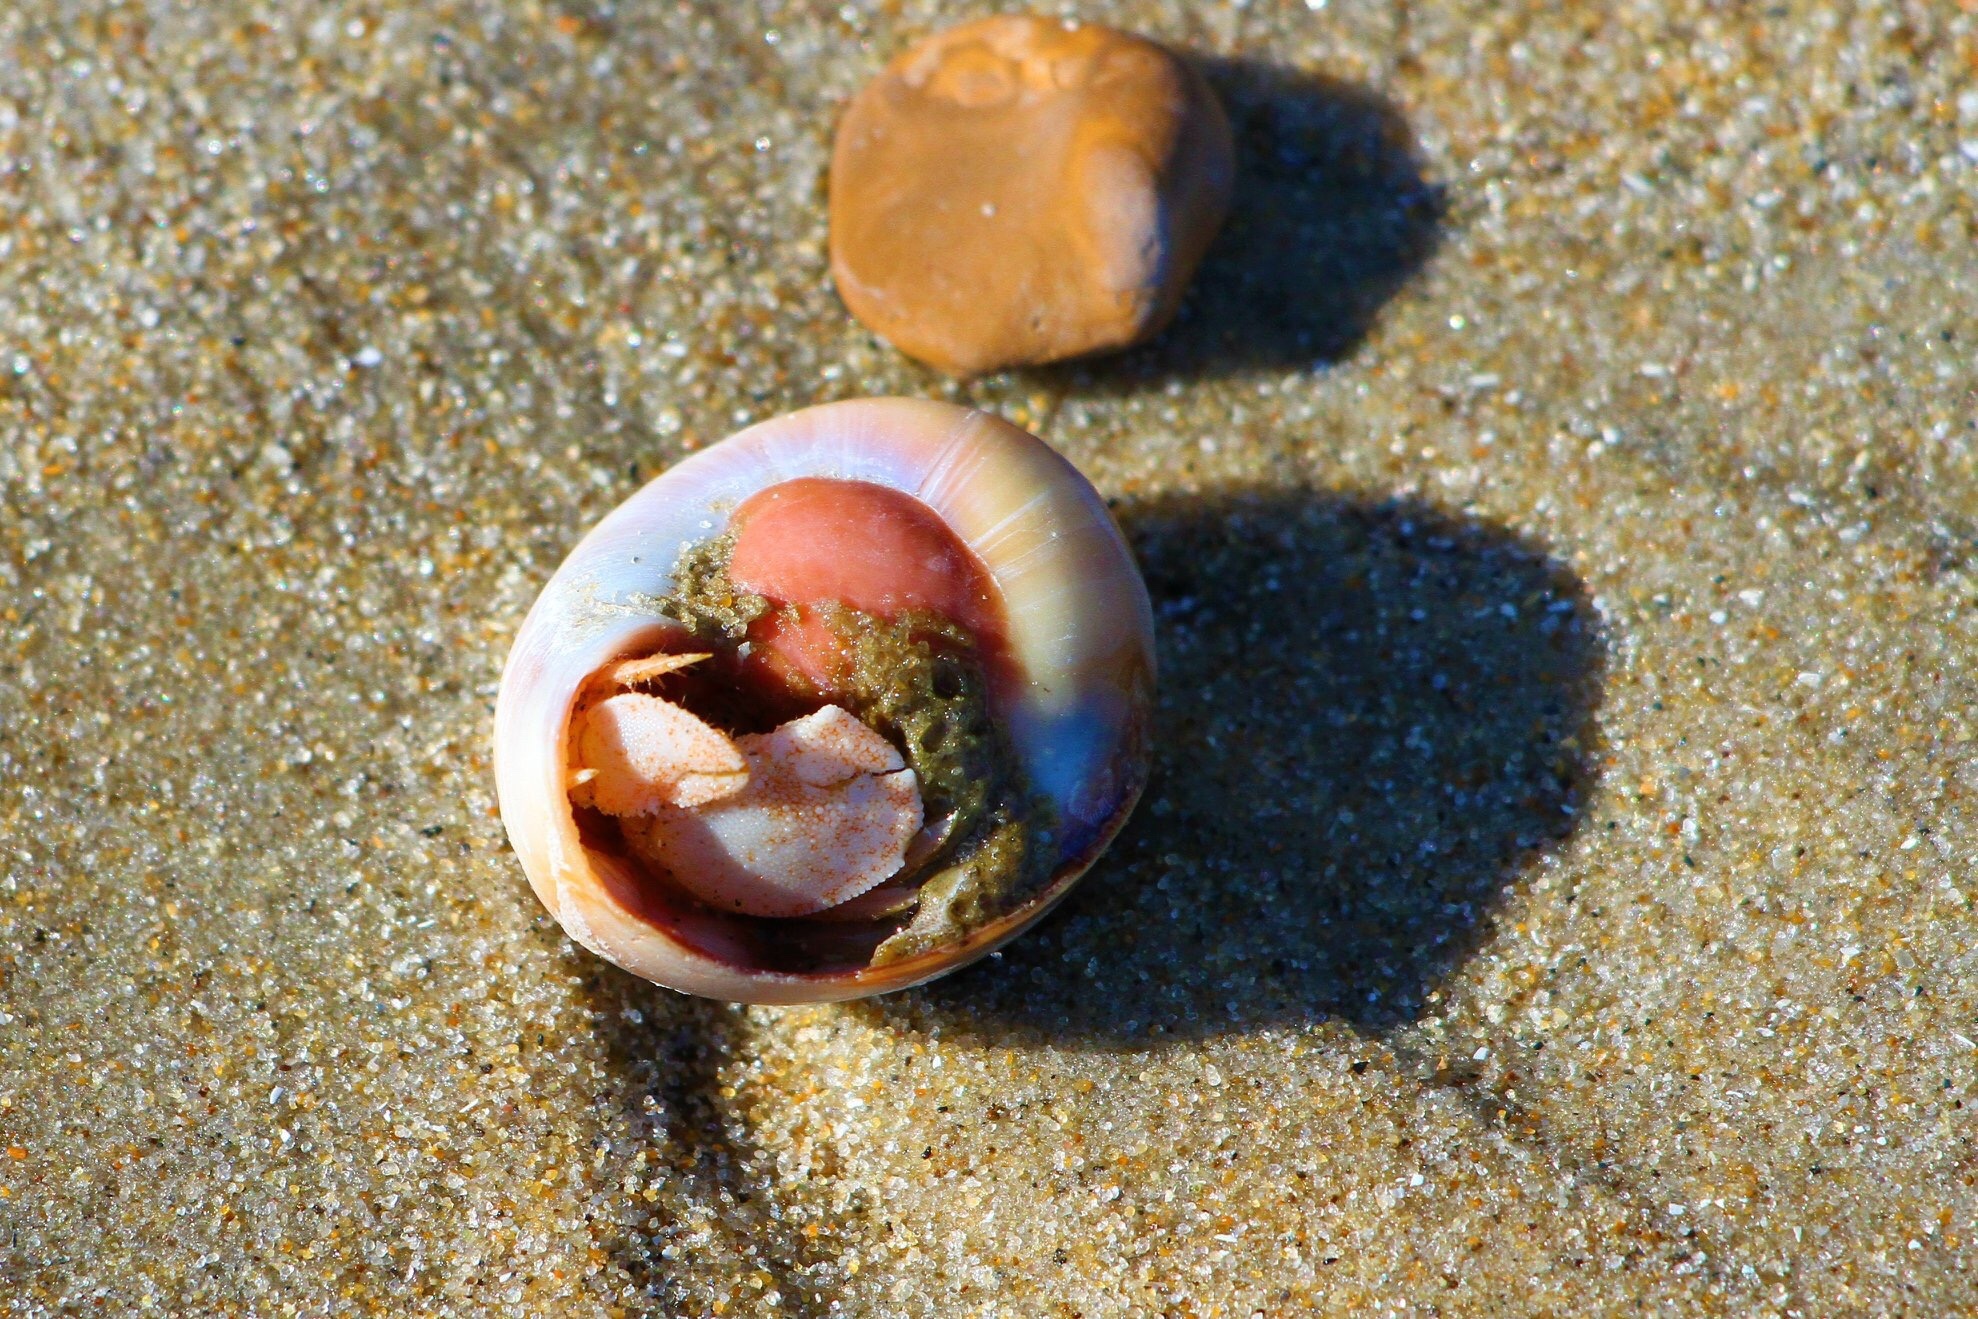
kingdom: Animalia
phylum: Arthropoda
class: Malacostraca
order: Decapoda
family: Paguridae
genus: Pagurus
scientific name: Pagurus pollicaris
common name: Flatclaw hermit
